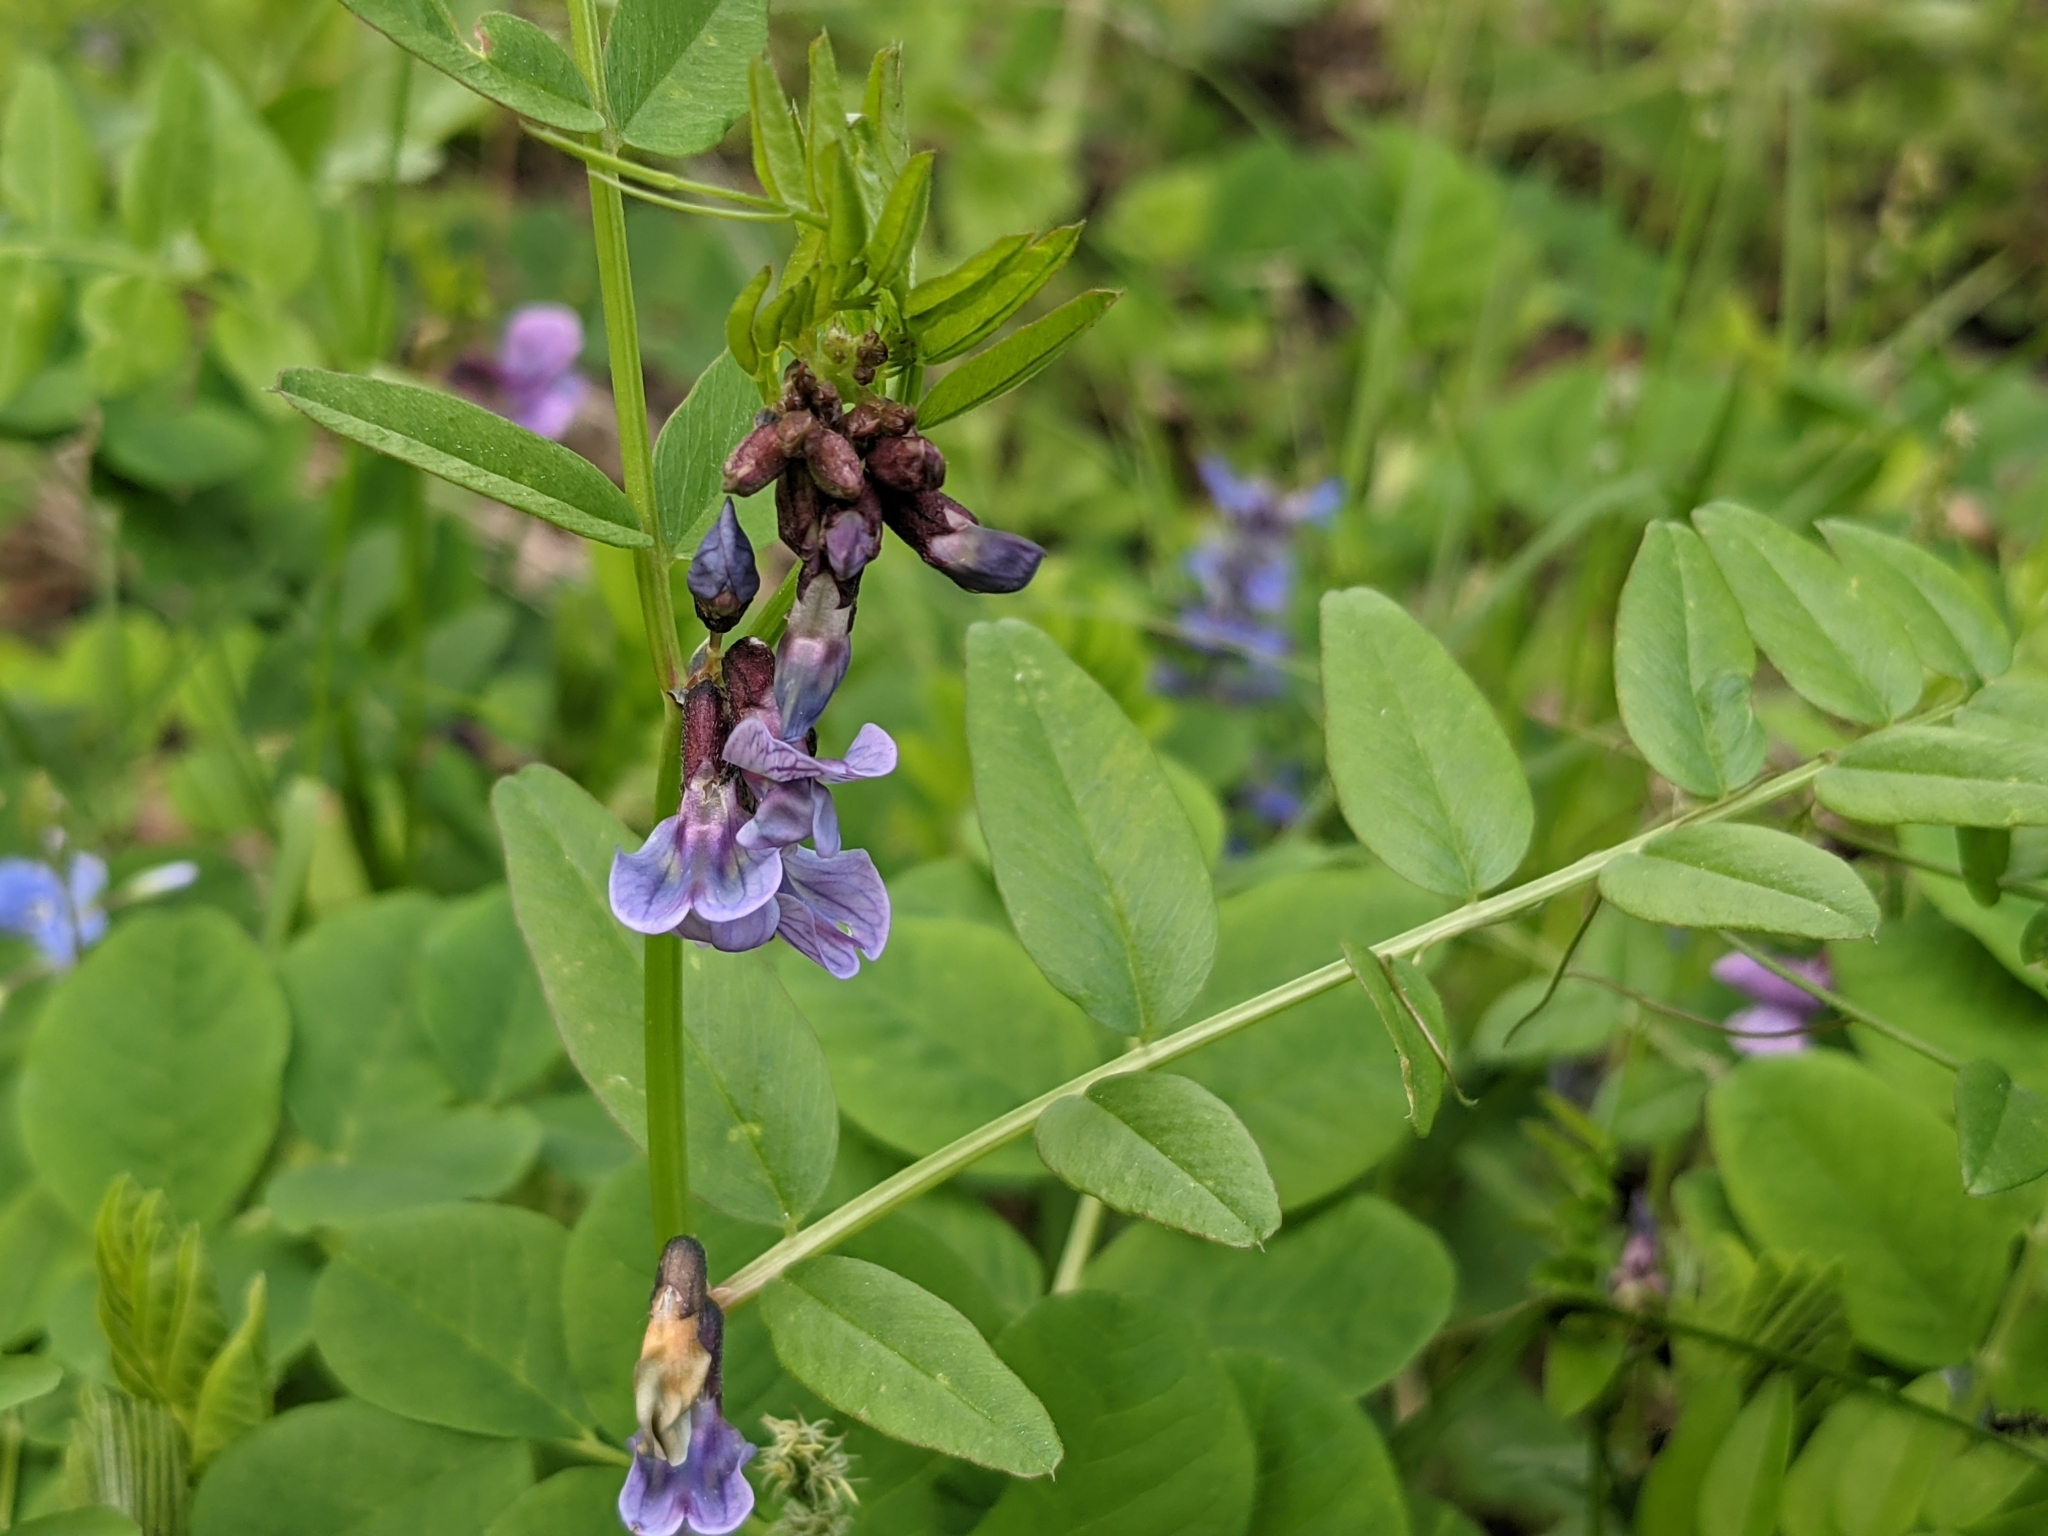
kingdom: Plantae
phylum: Tracheophyta
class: Magnoliopsida
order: Fabales
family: Fabaceae
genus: Vicia
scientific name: Vicia sepium
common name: Bush vetch
